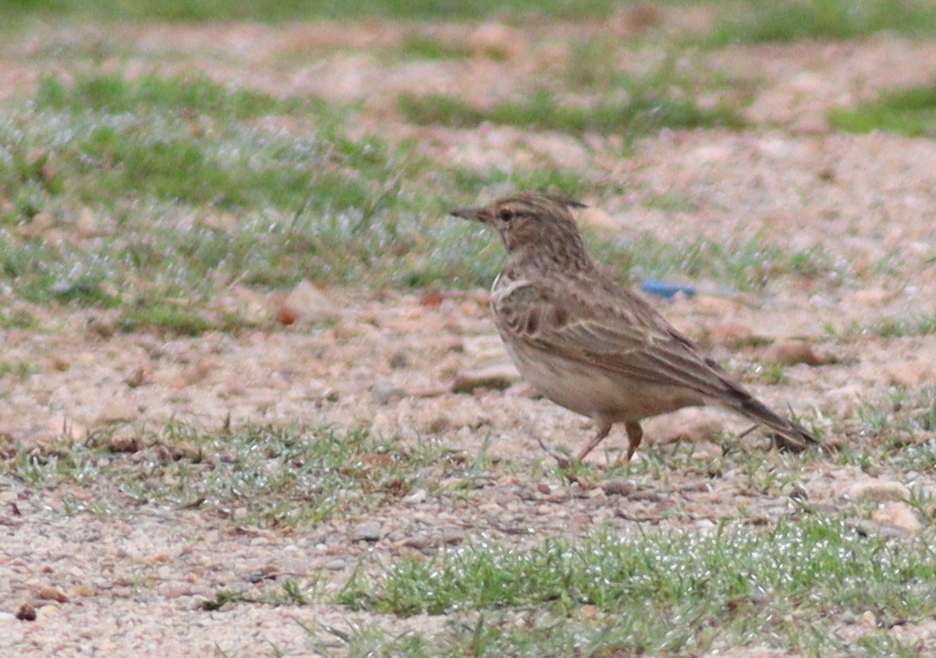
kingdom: Animalia
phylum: Chordata
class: Aves
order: Passeriformes
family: Alaudidae
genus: Galerida
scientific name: Galerida cristata
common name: Crested lark
